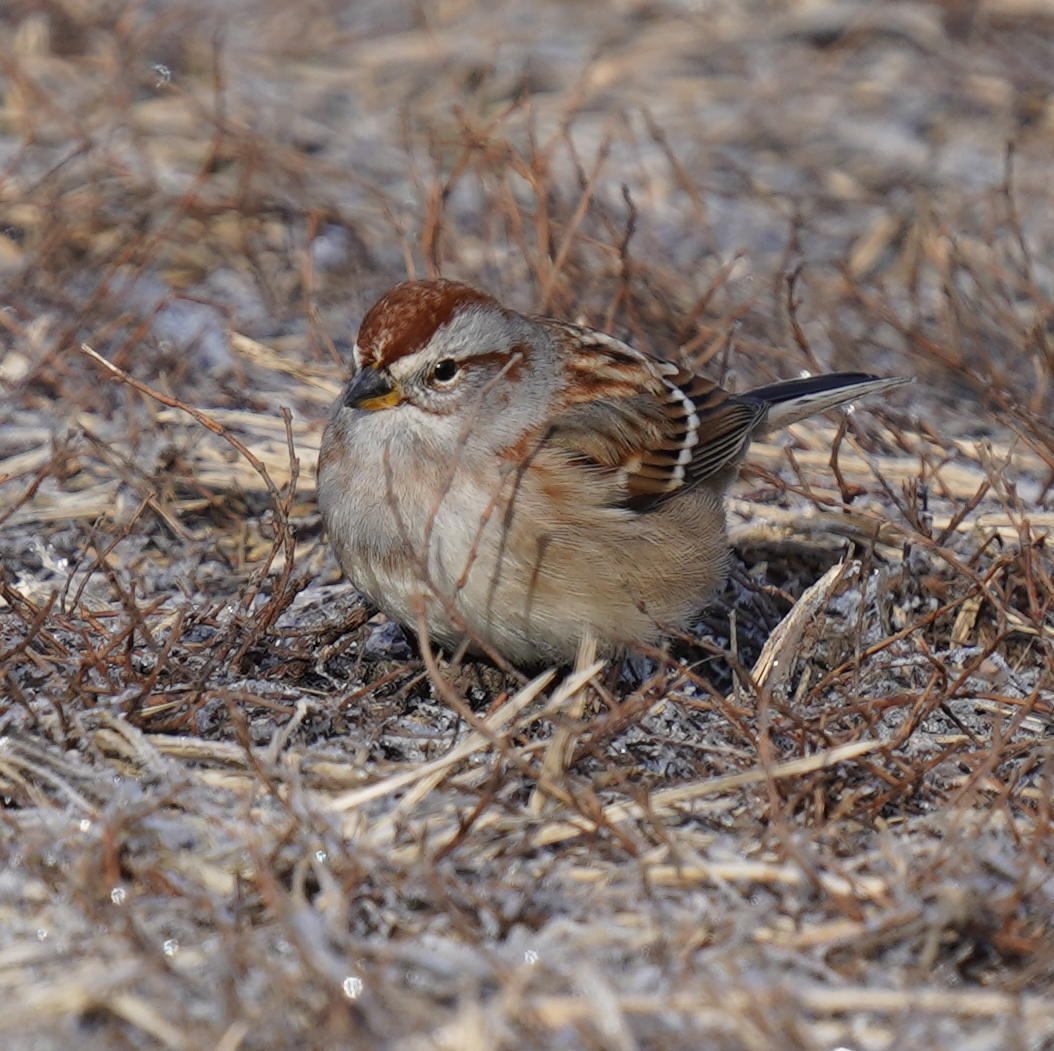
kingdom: Animalia
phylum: Chordata
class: Aves
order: Passeriformes
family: Passerellidae
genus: Spizelloides
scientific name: Spizelloides arborea
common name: American tree sparrow
